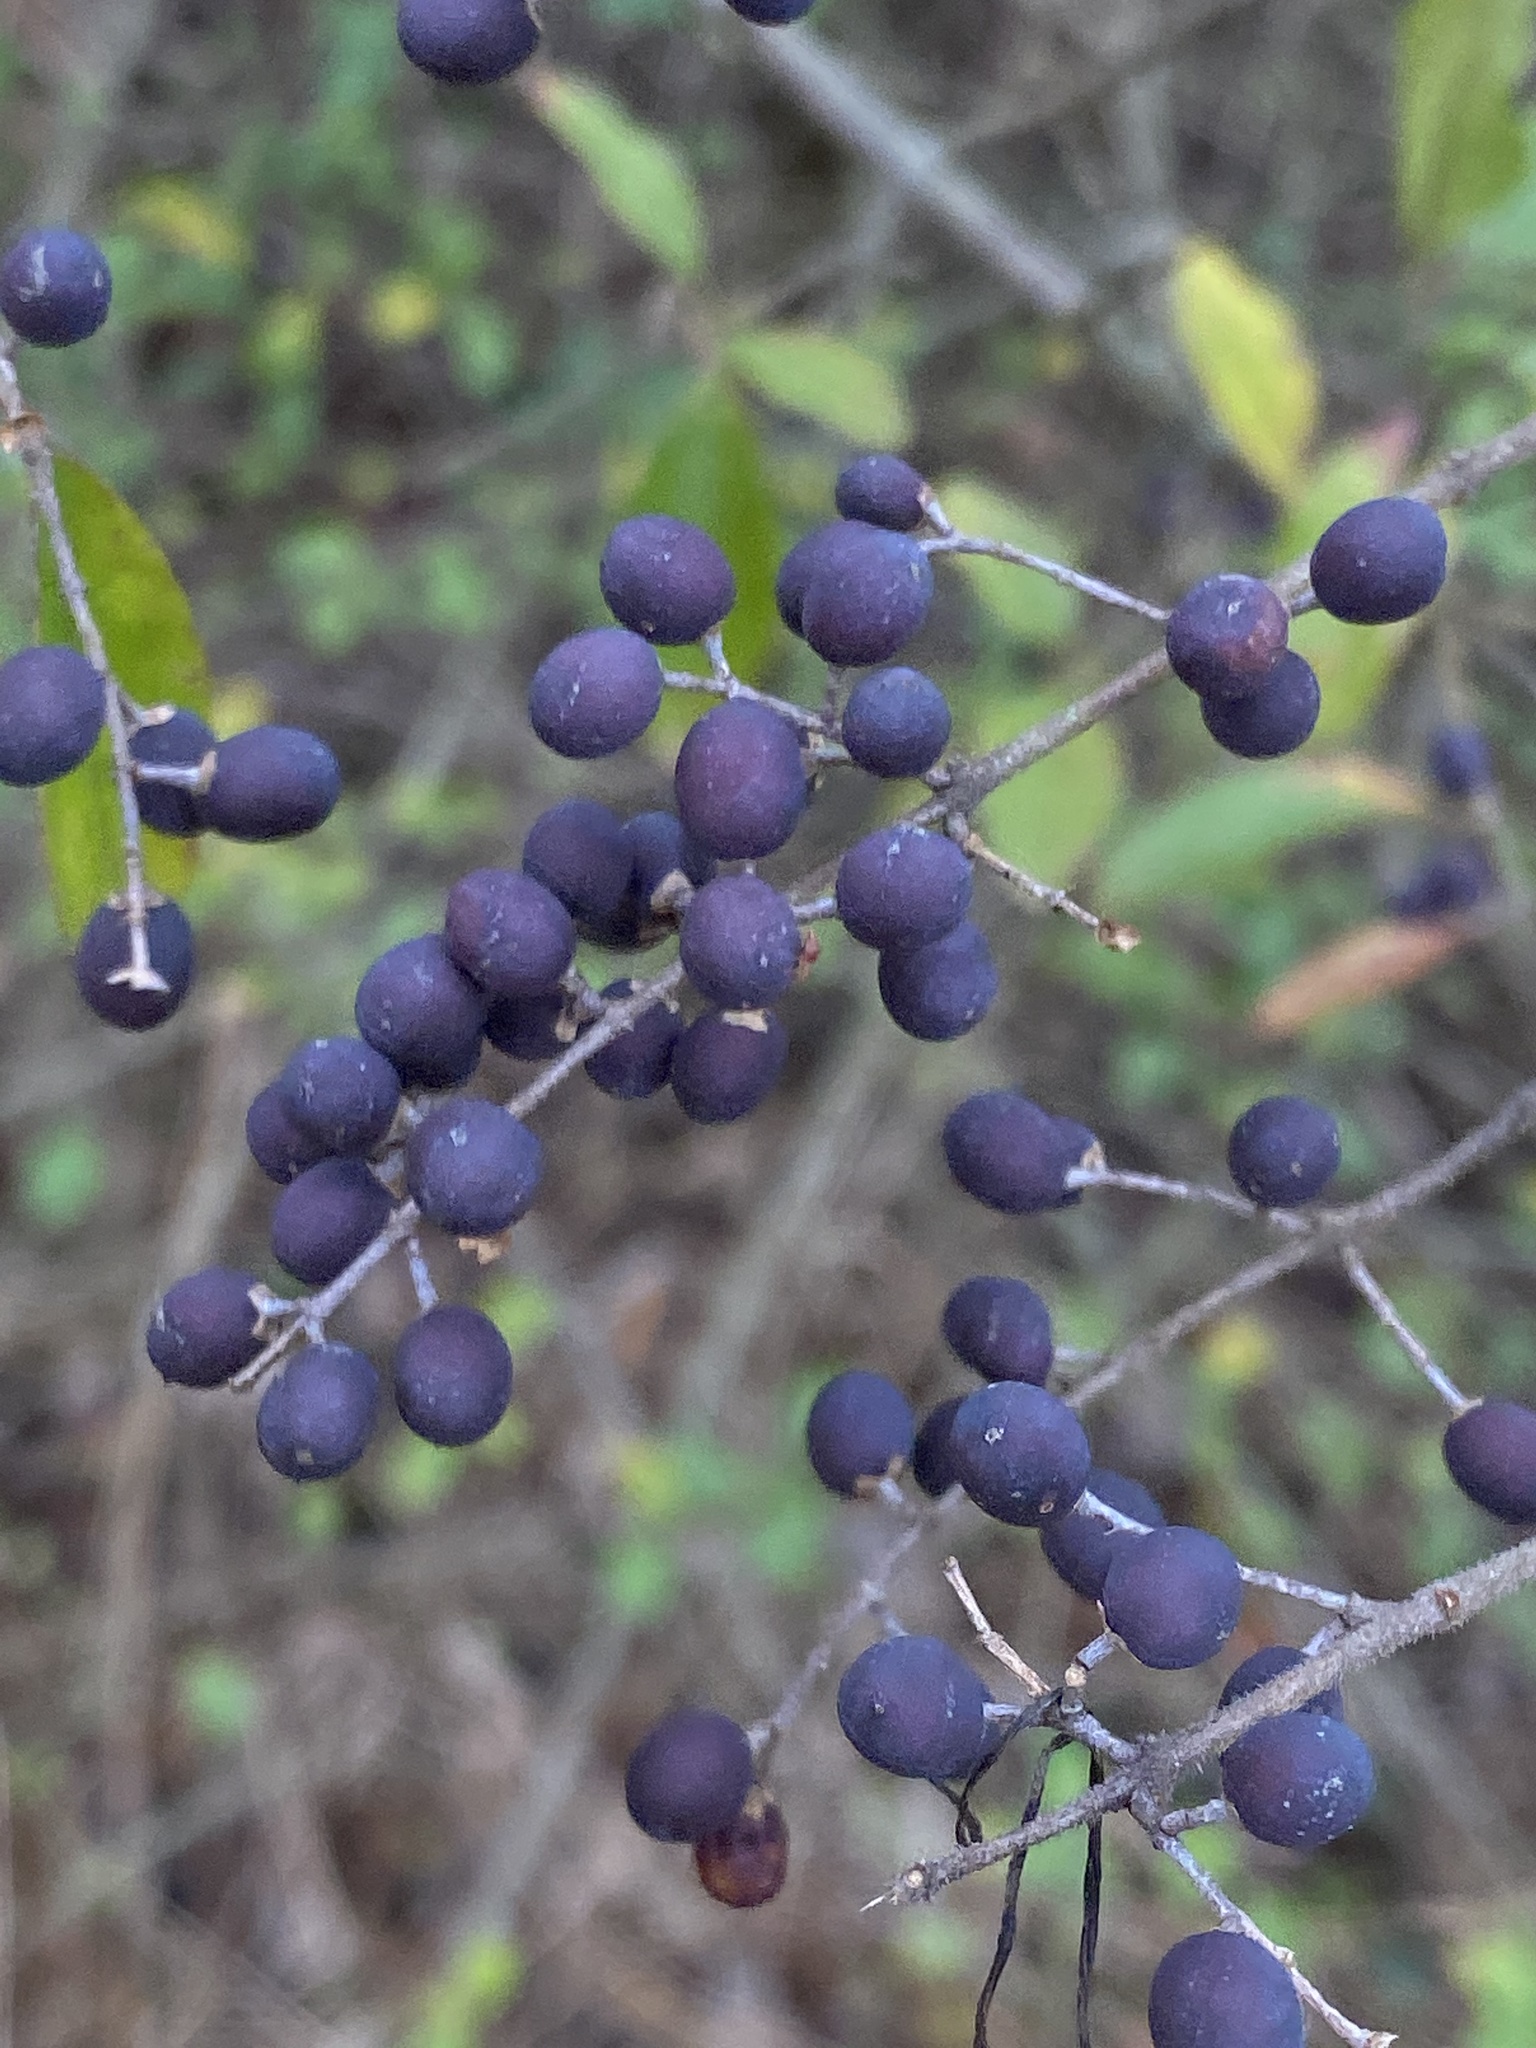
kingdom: Plantae
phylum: Tracheophyta
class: Magnoliopsida
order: Lamiales
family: Oleaceae
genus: Ligustrum
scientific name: Ligustrum sinense
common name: Chinese privet
